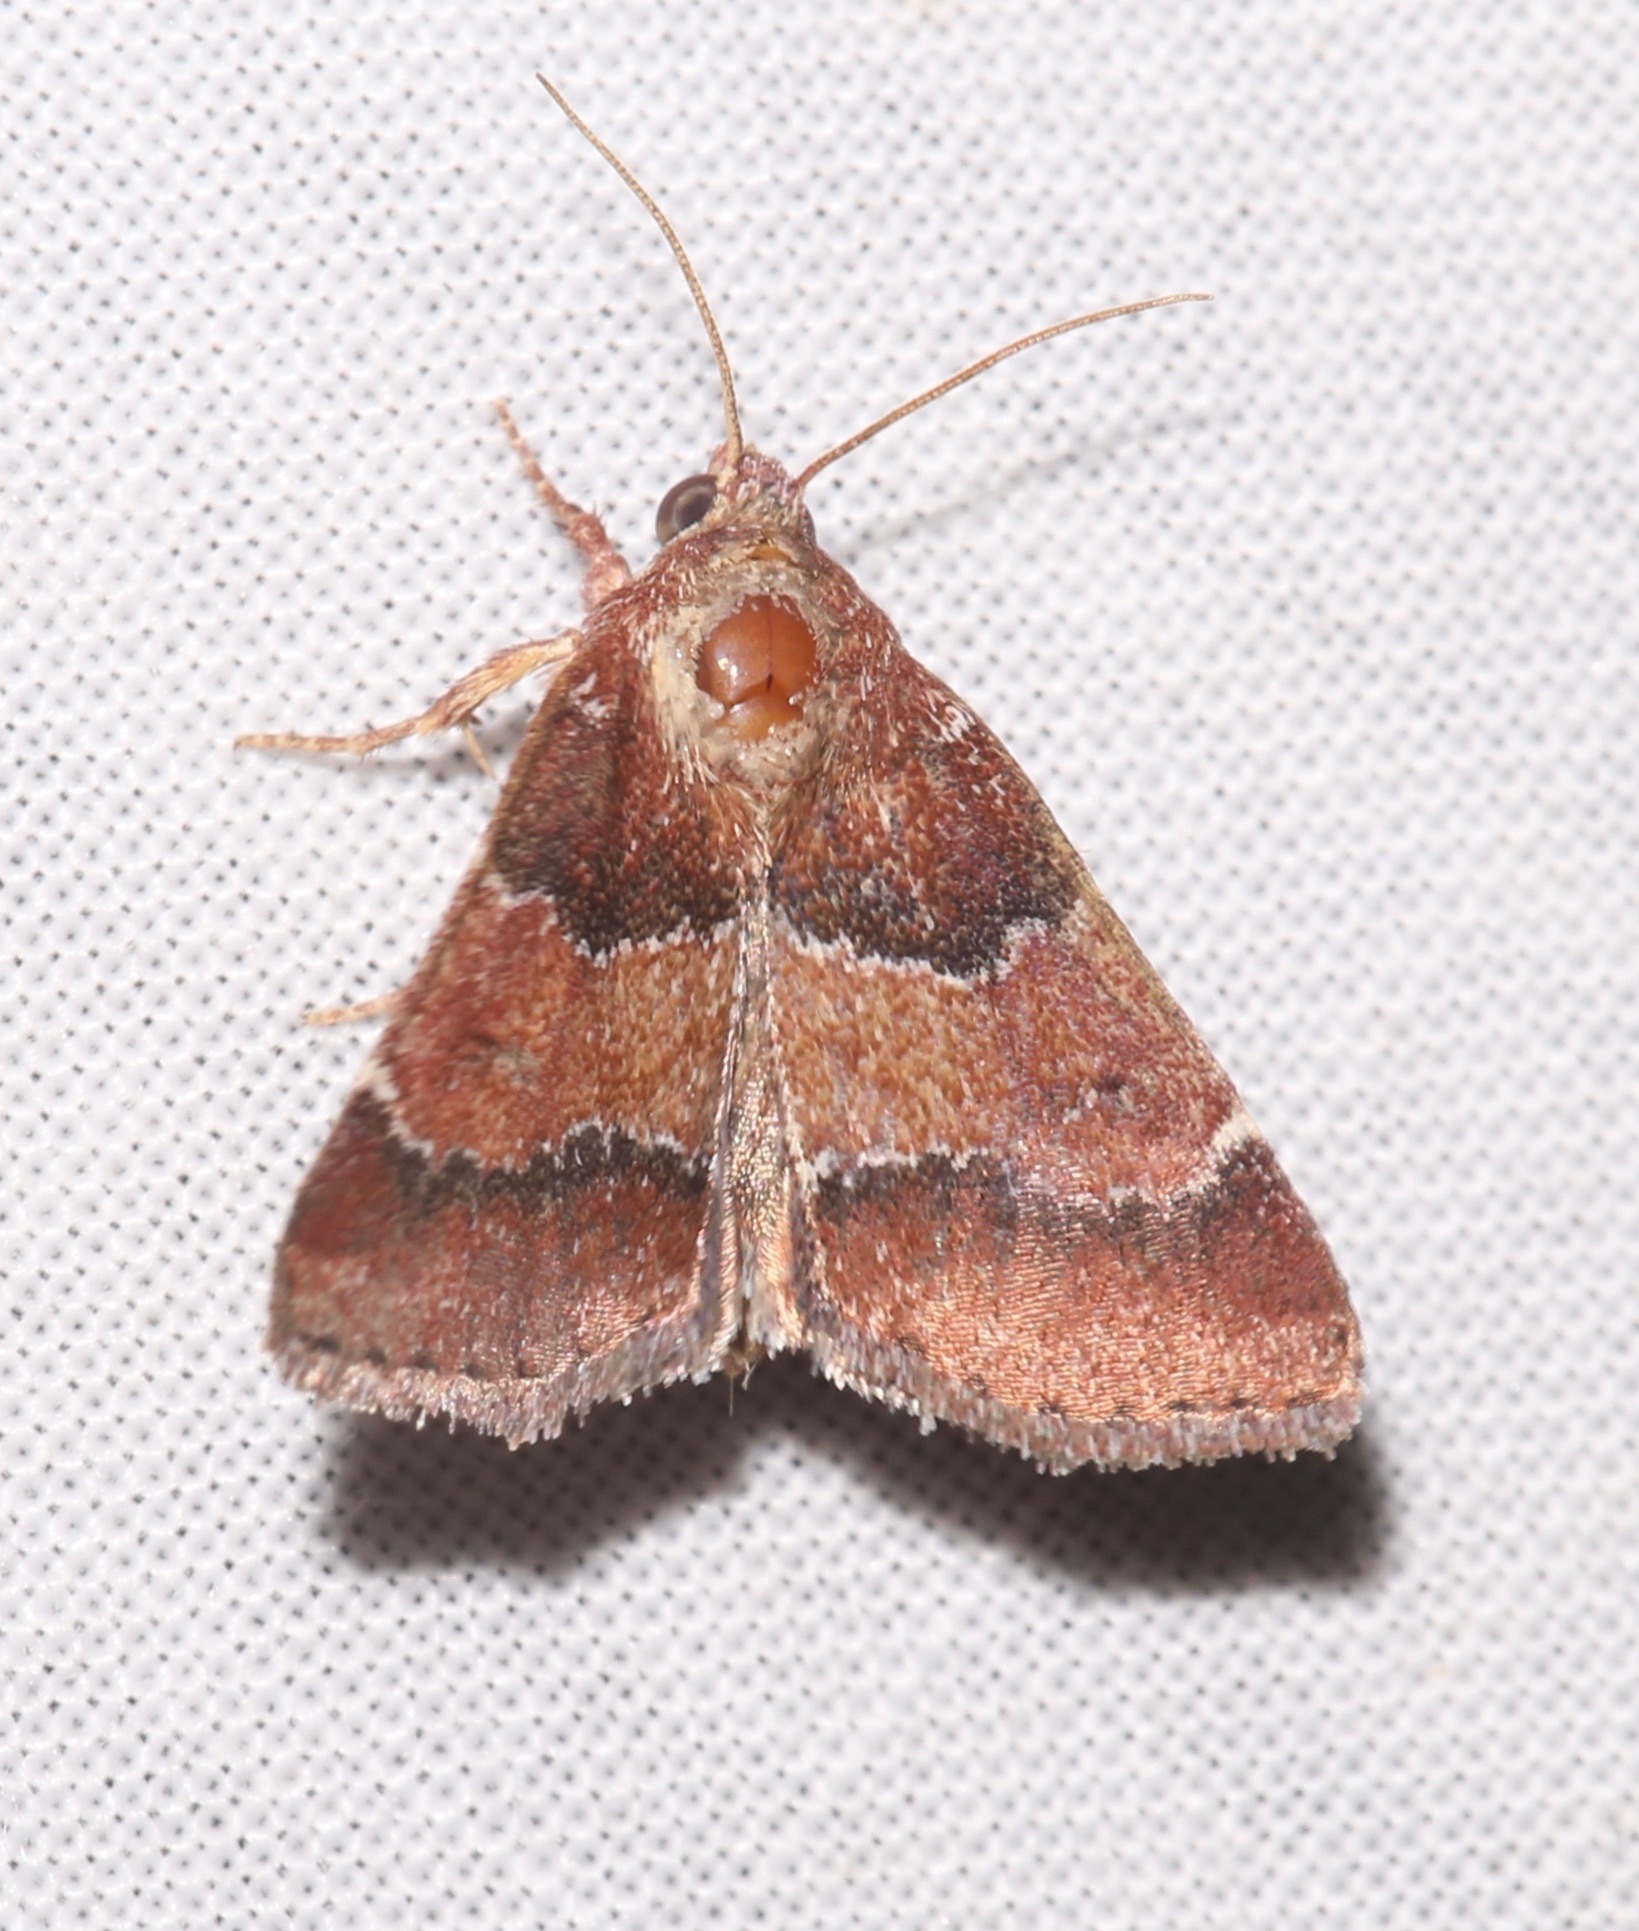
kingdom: Animalia
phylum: Arthropoda
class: Insecta
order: Lepidoptera
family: Noctuidae
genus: Schinia
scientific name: Schinia saturata
